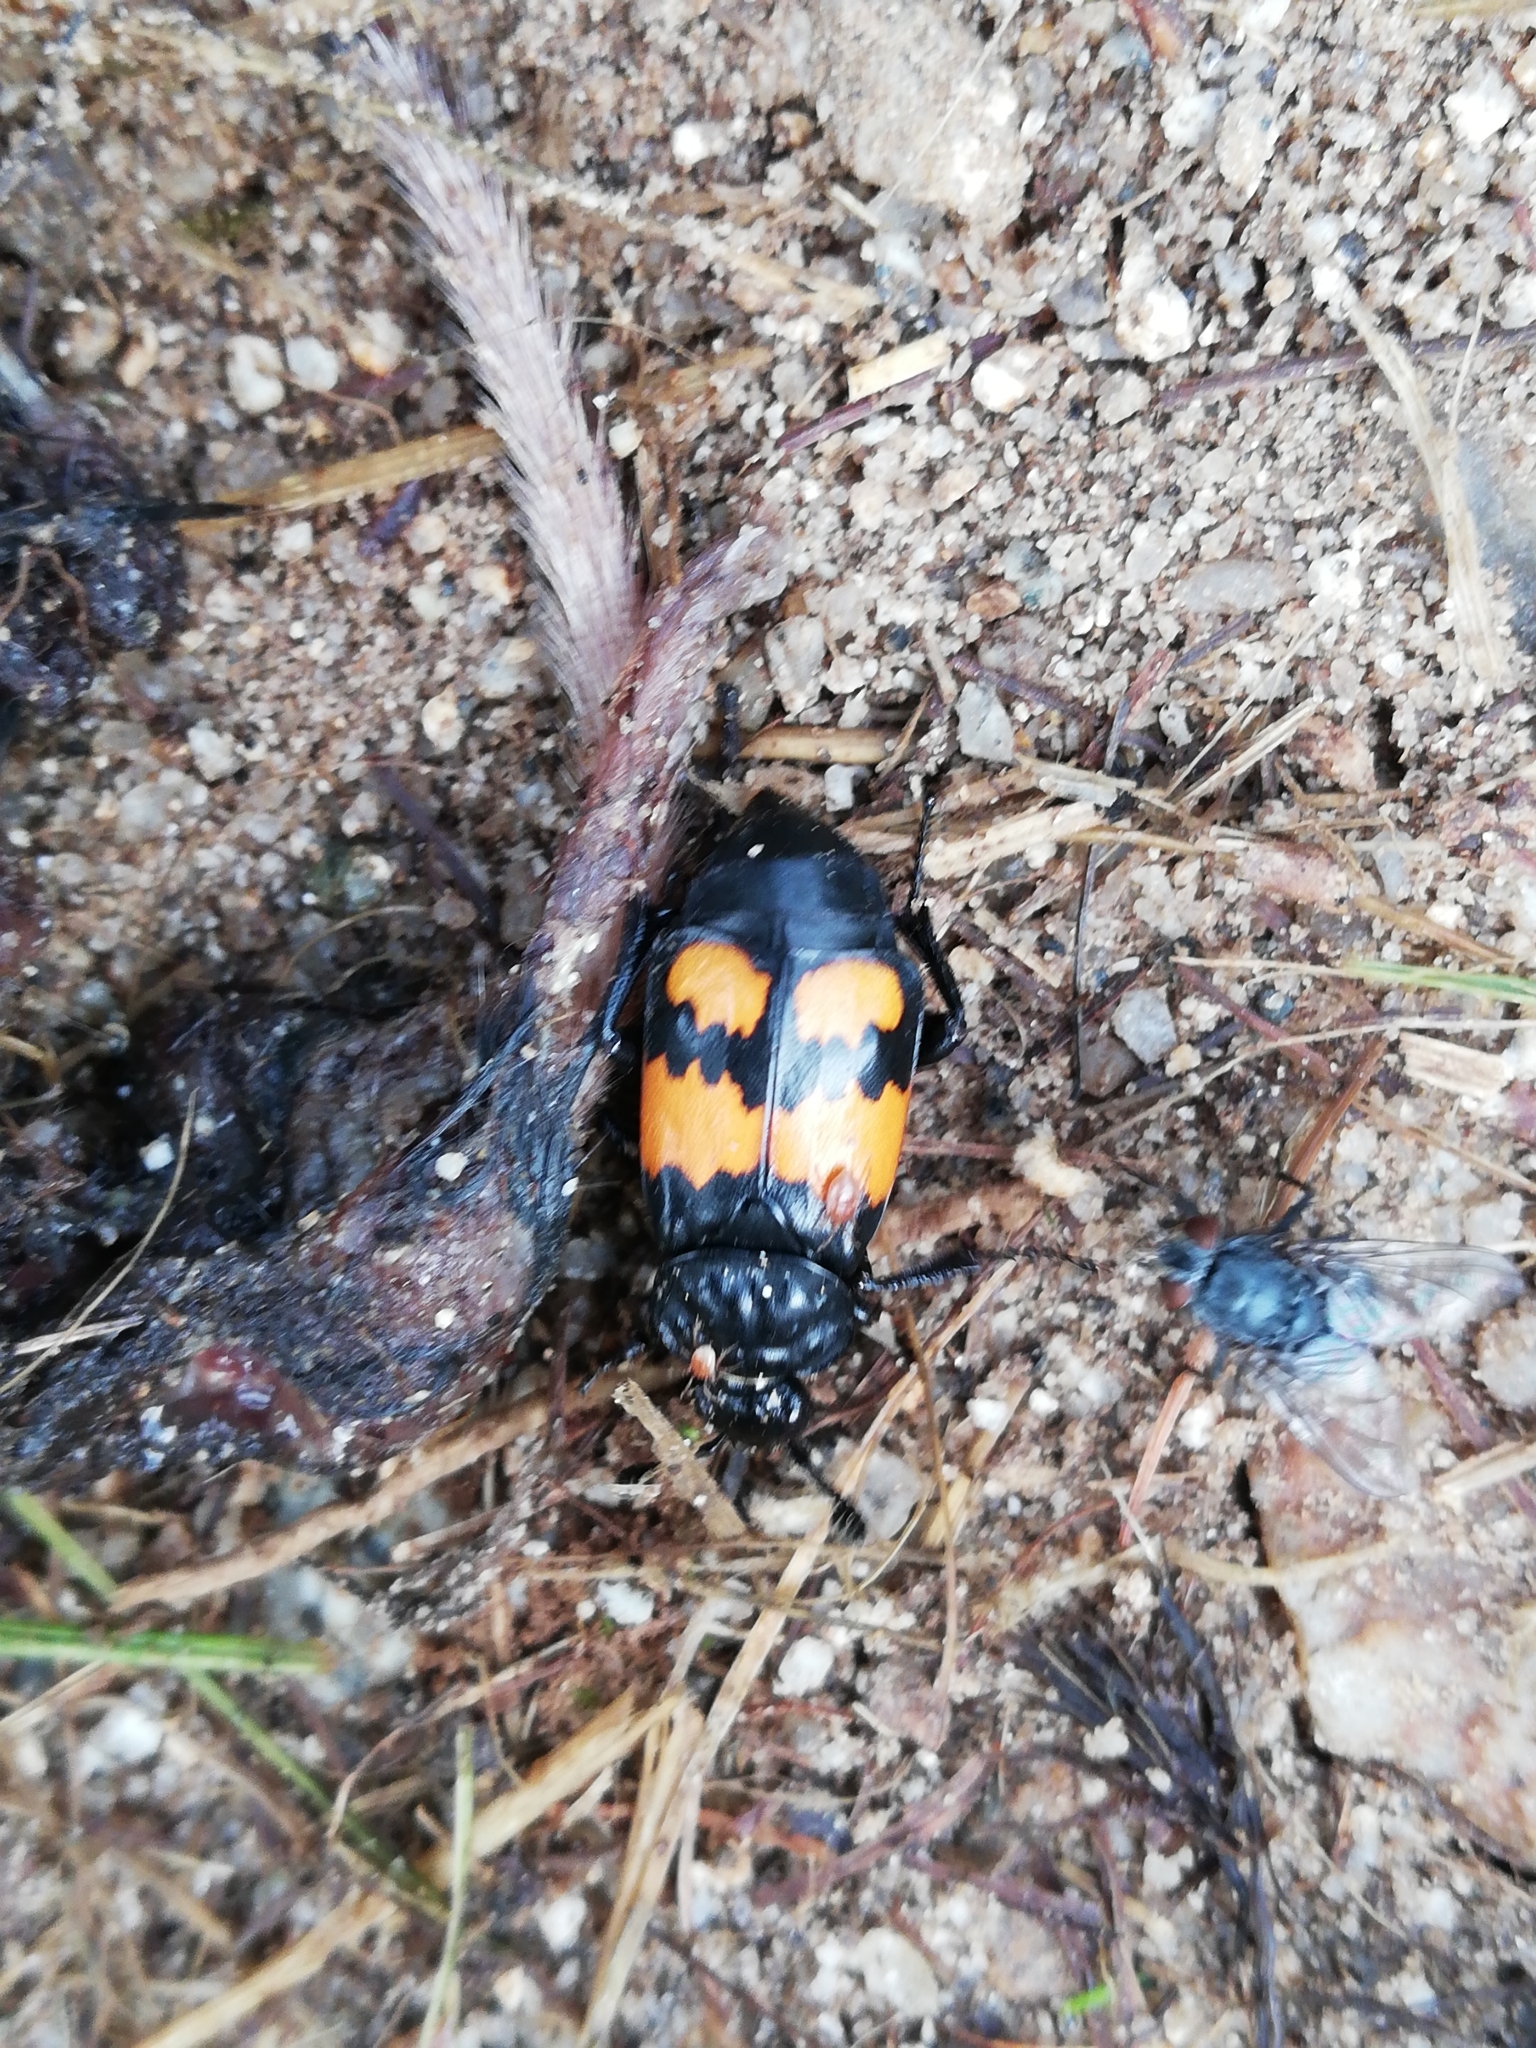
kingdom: Animalia
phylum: Arthropoda
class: Insecta
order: Coleoptera
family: Staphylinidae
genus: Nicrophorus
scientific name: Nicrophorus vespilloides
